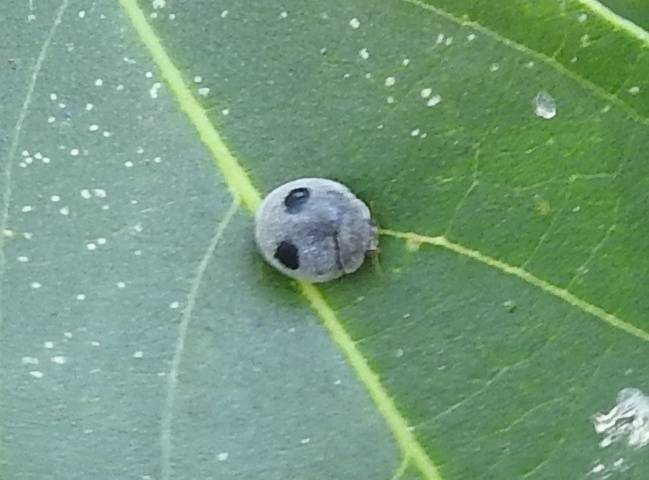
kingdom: Animalia
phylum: Arthropoda
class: Insecta
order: Coleoptera
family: Coccinellidae
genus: Azya
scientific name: Azya orbigera
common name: Ladybird beetle
